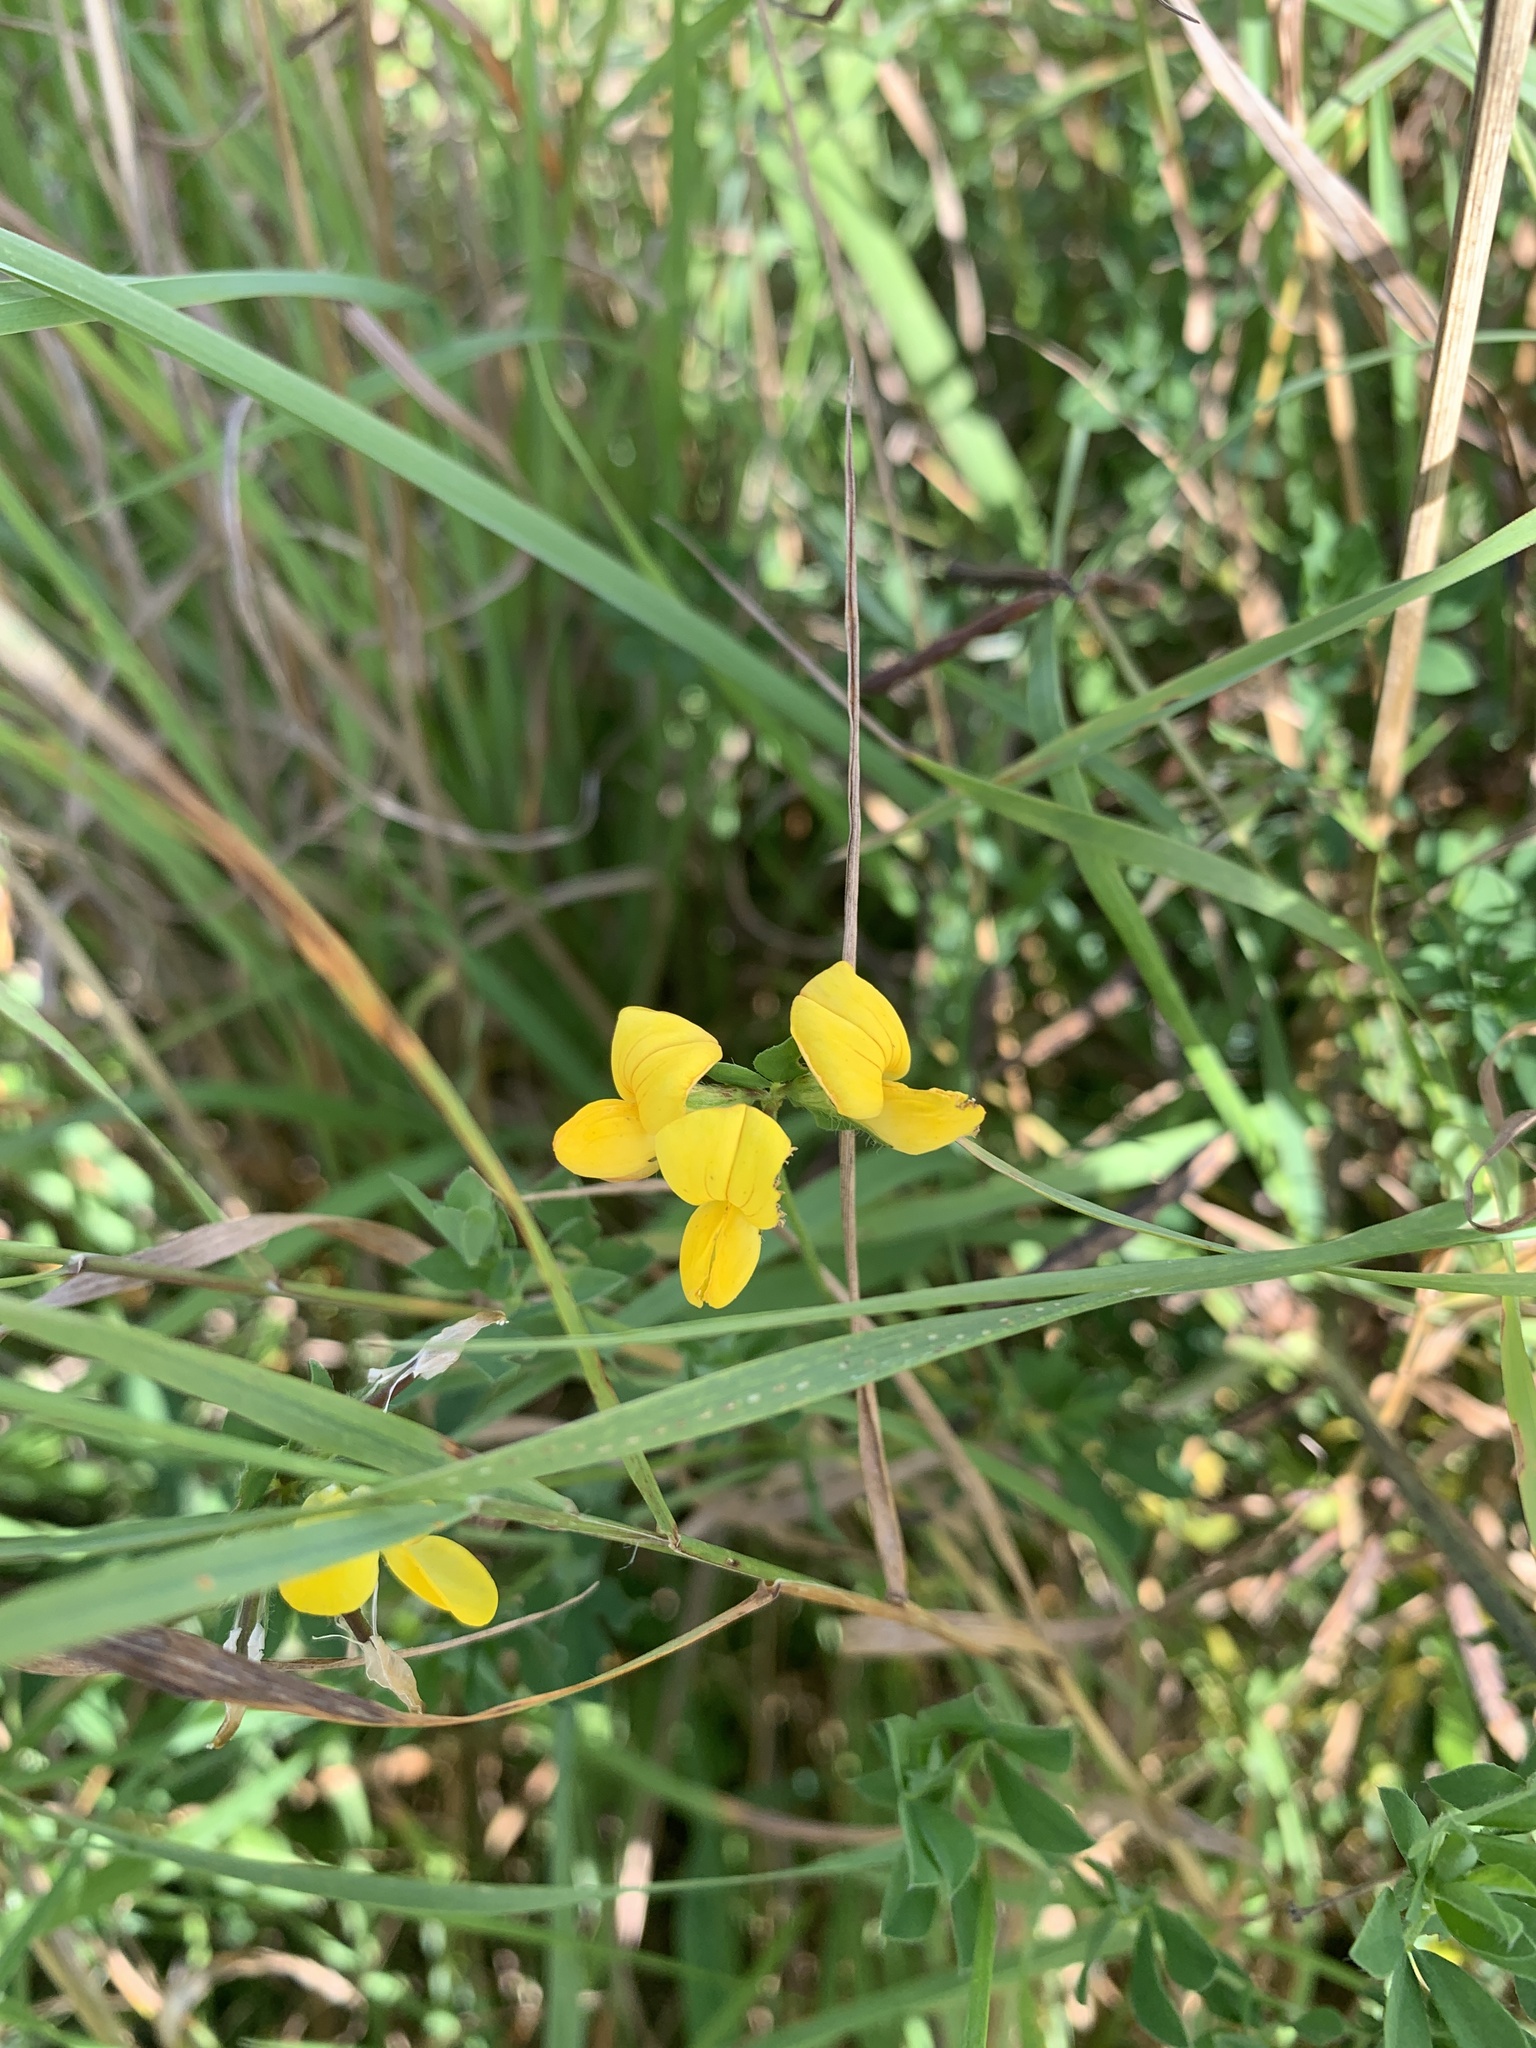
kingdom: Plantae
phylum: Tracheophyta
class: Magnoliopsida
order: Fabales
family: Fabaceae
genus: Lotus
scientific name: Lotus corniculatus
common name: Common bird's-foot-trefoil
